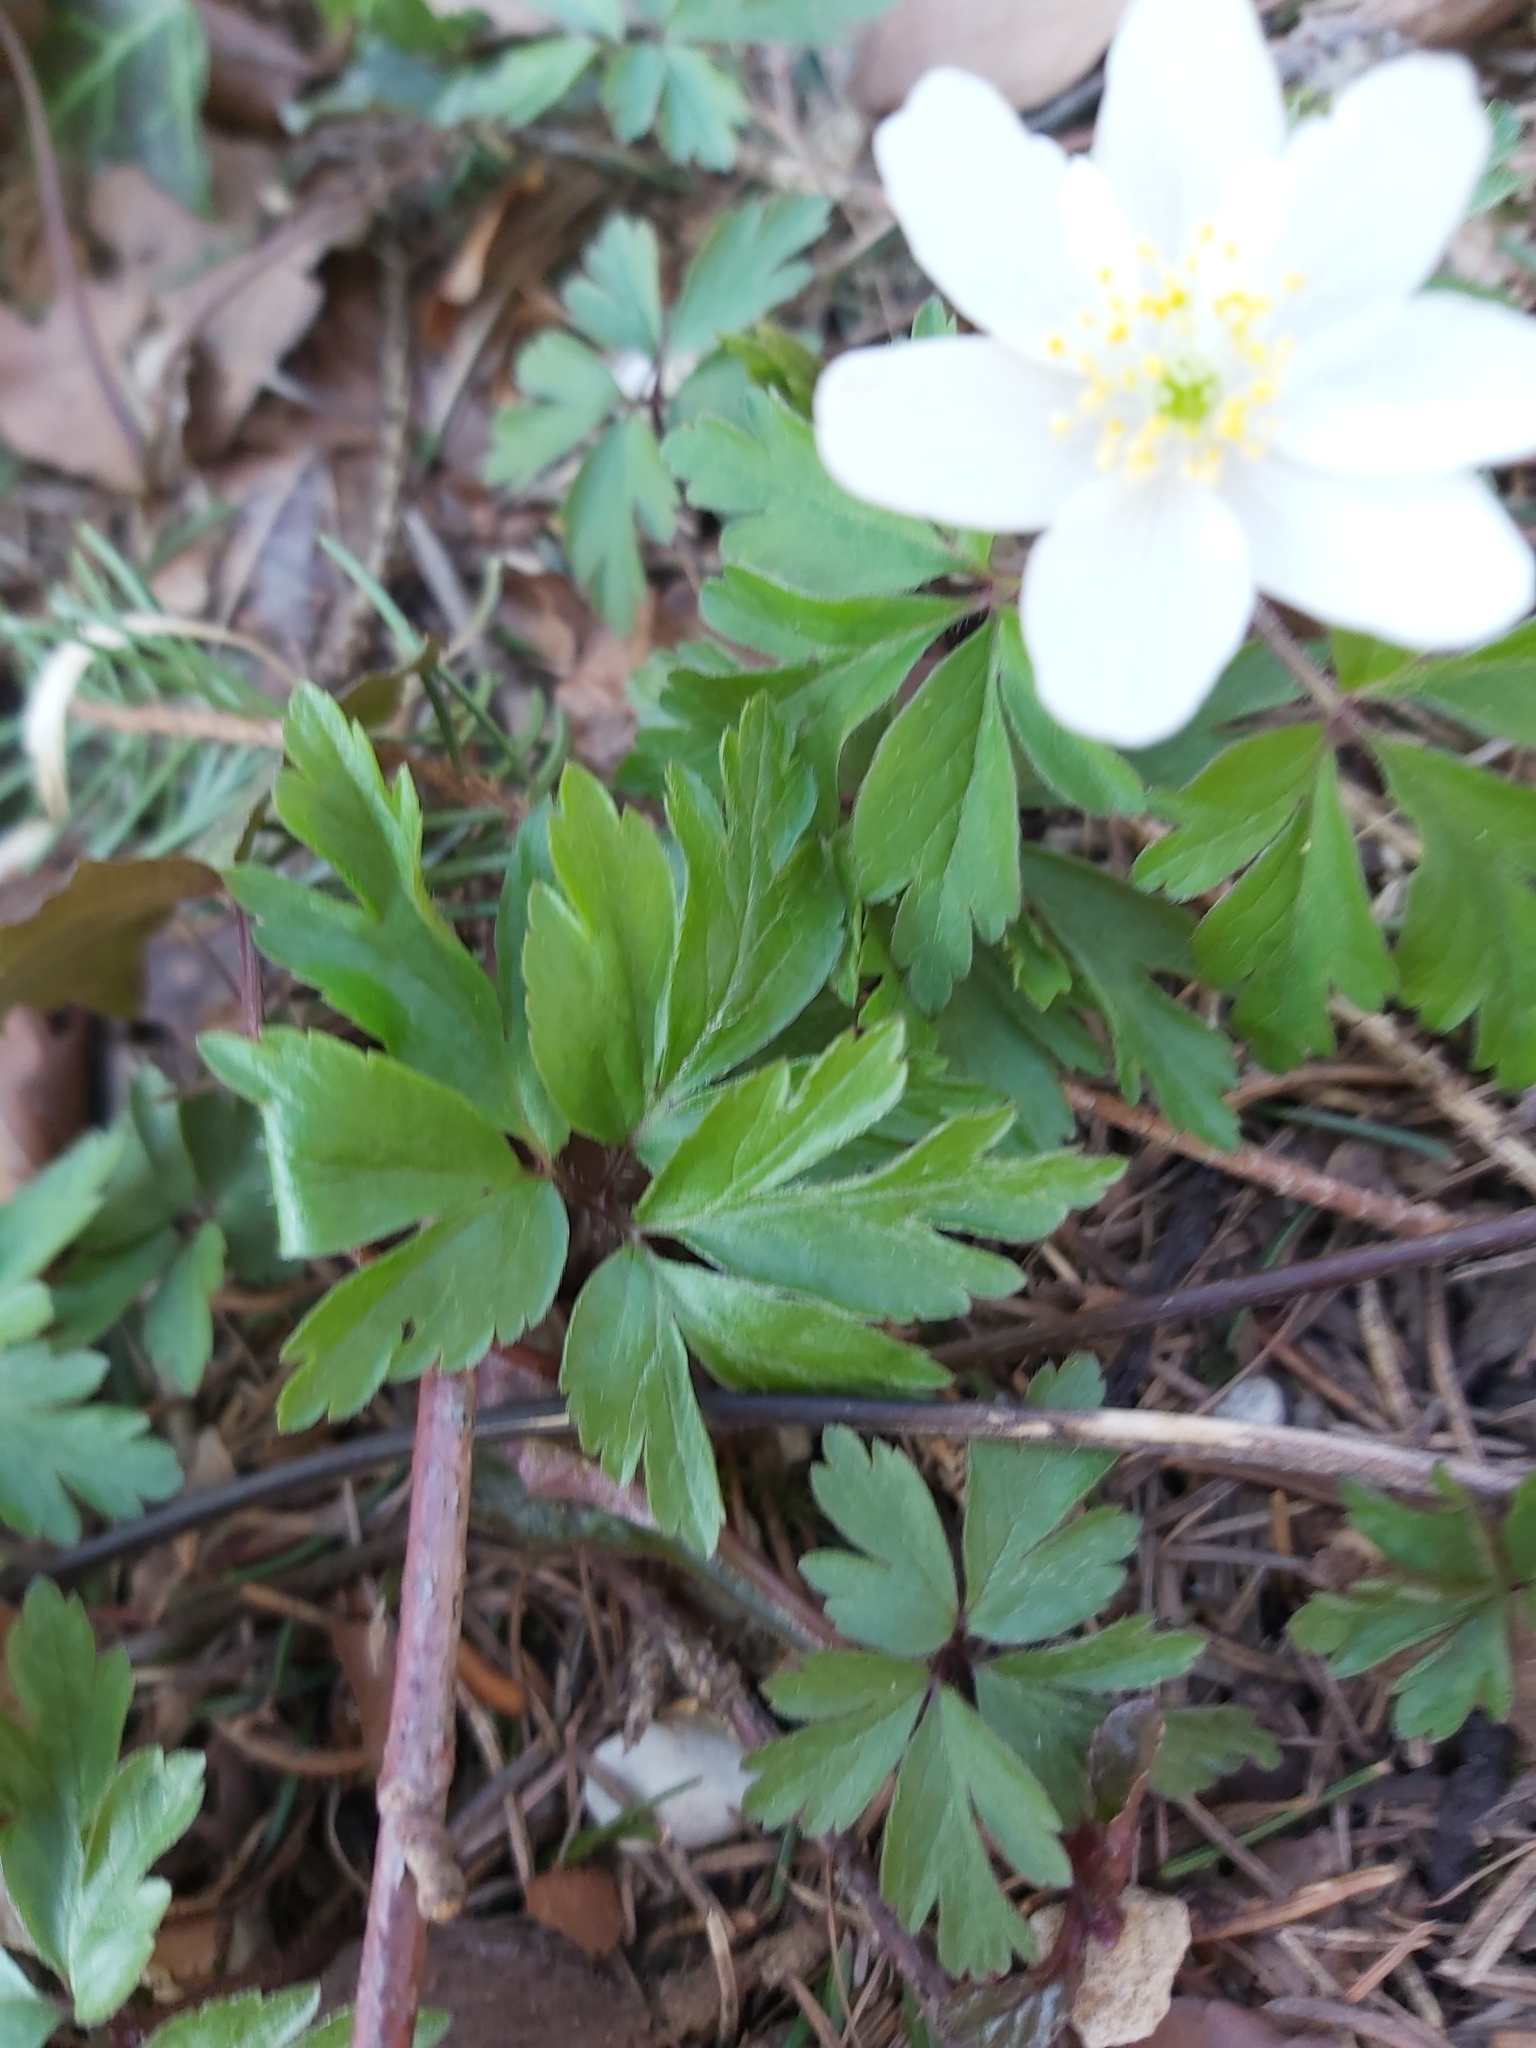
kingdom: Plantae
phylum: Tracheophyta
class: Magnoliopsida
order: Ranunculales
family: Ranunculaceae
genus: Anemone
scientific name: Anemone nemorosa
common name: Wood anemone
